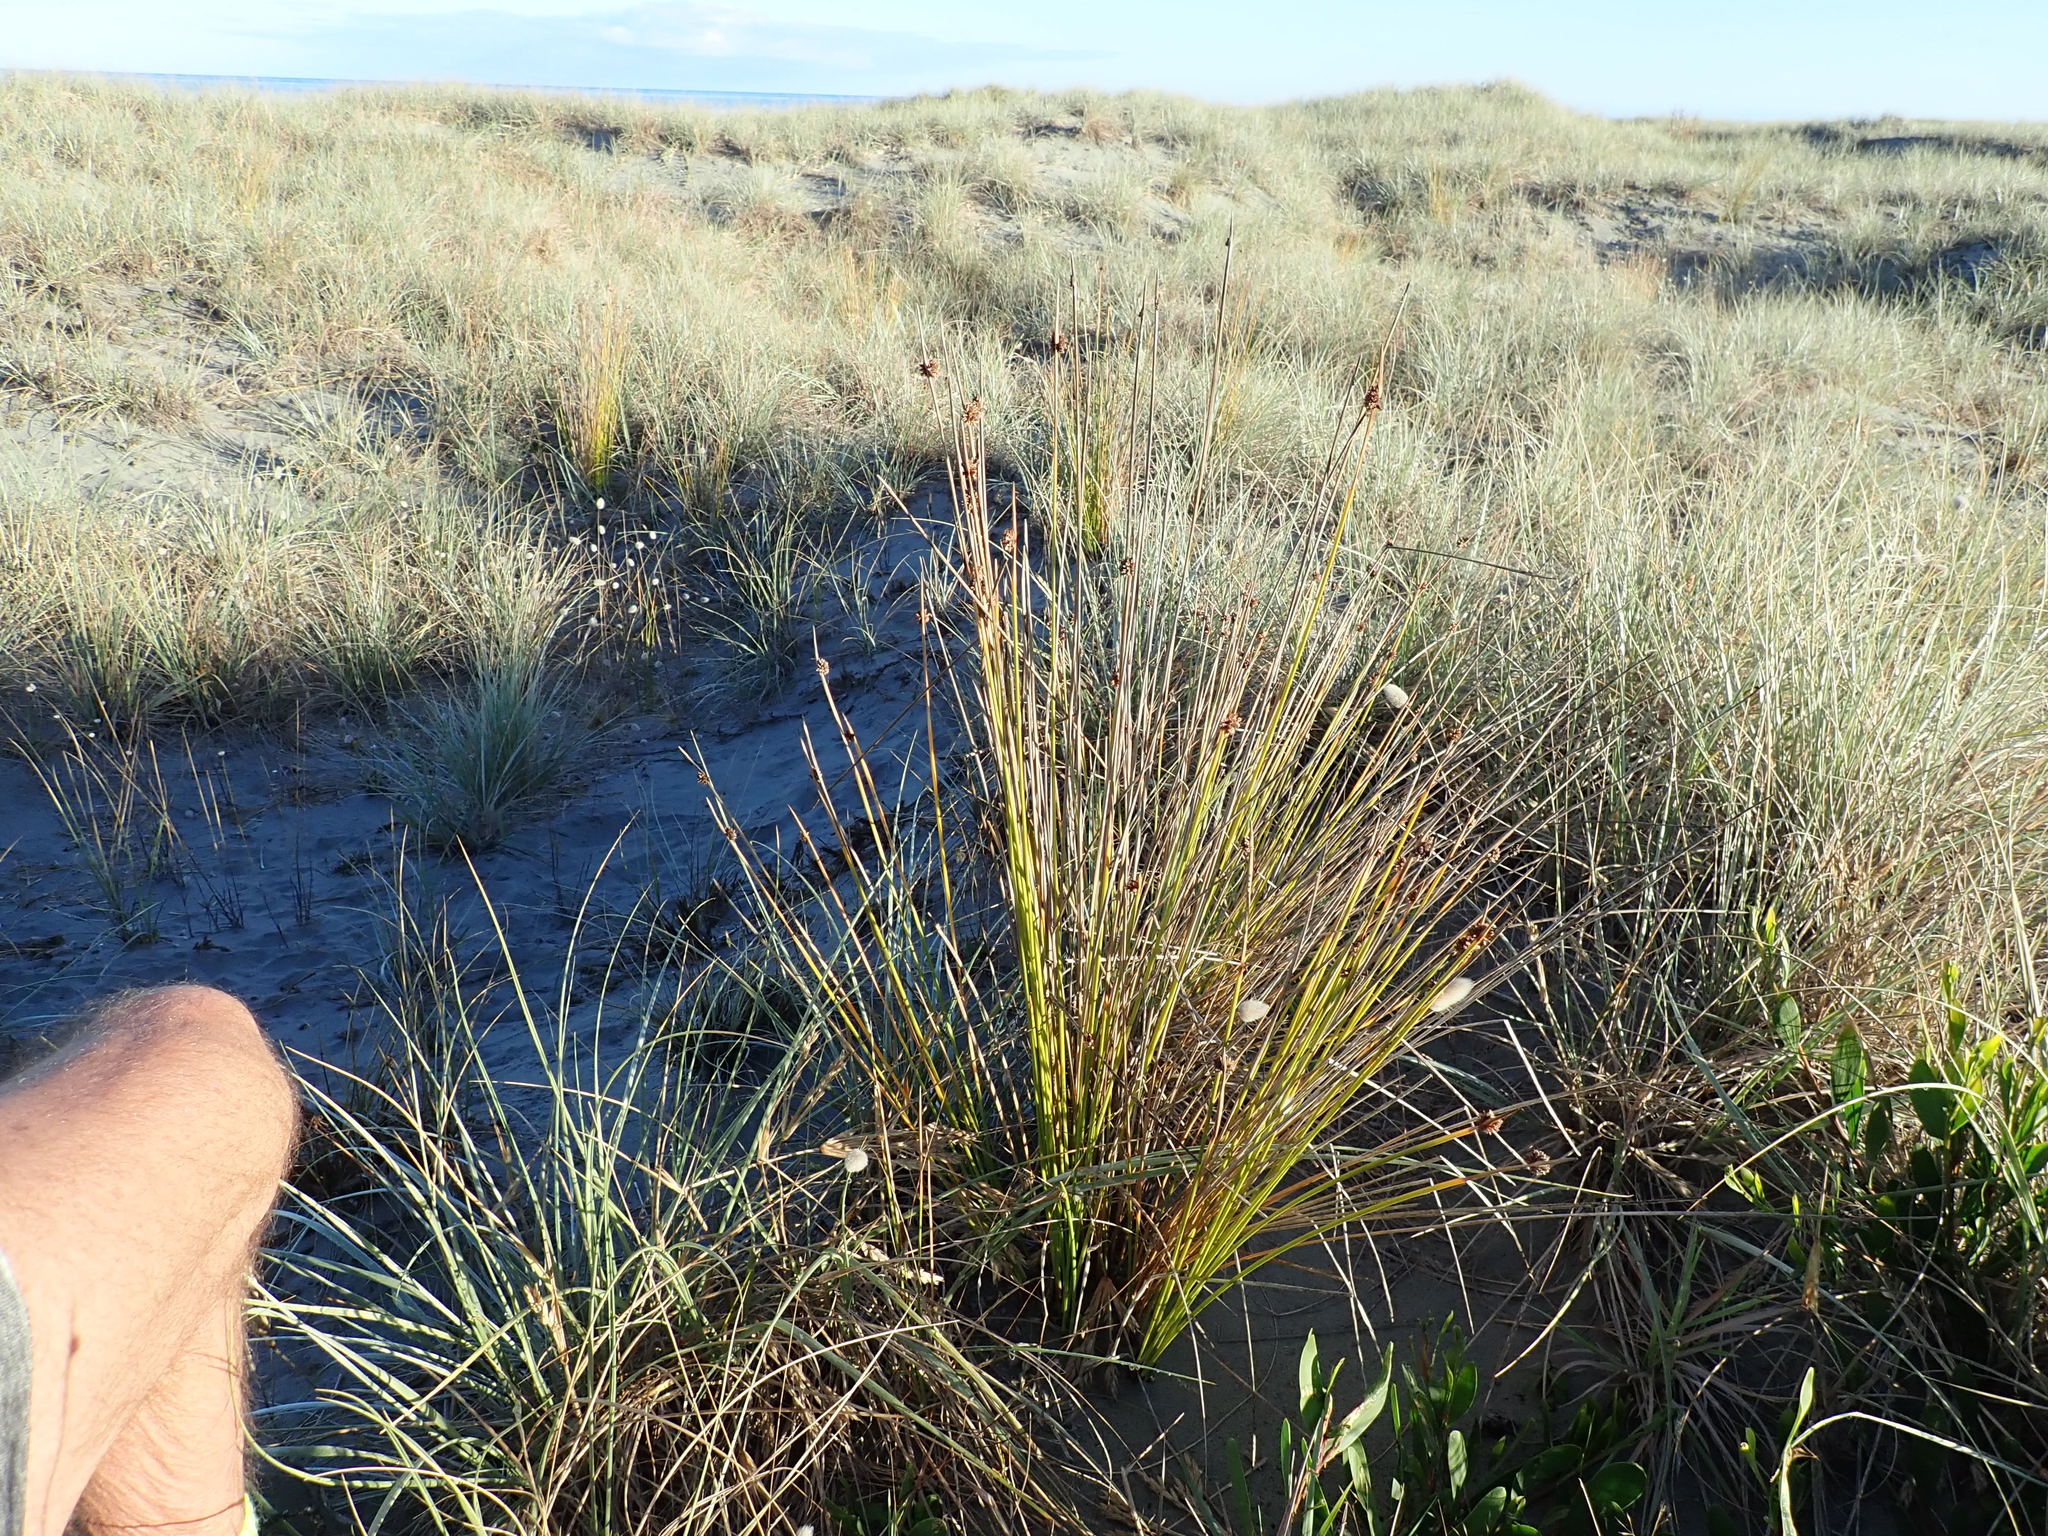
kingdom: Plantae
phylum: Tracheophyta
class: Liliopsida
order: Poales
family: Cyperaceae
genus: Ficinia
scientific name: Ficinia nodosa
